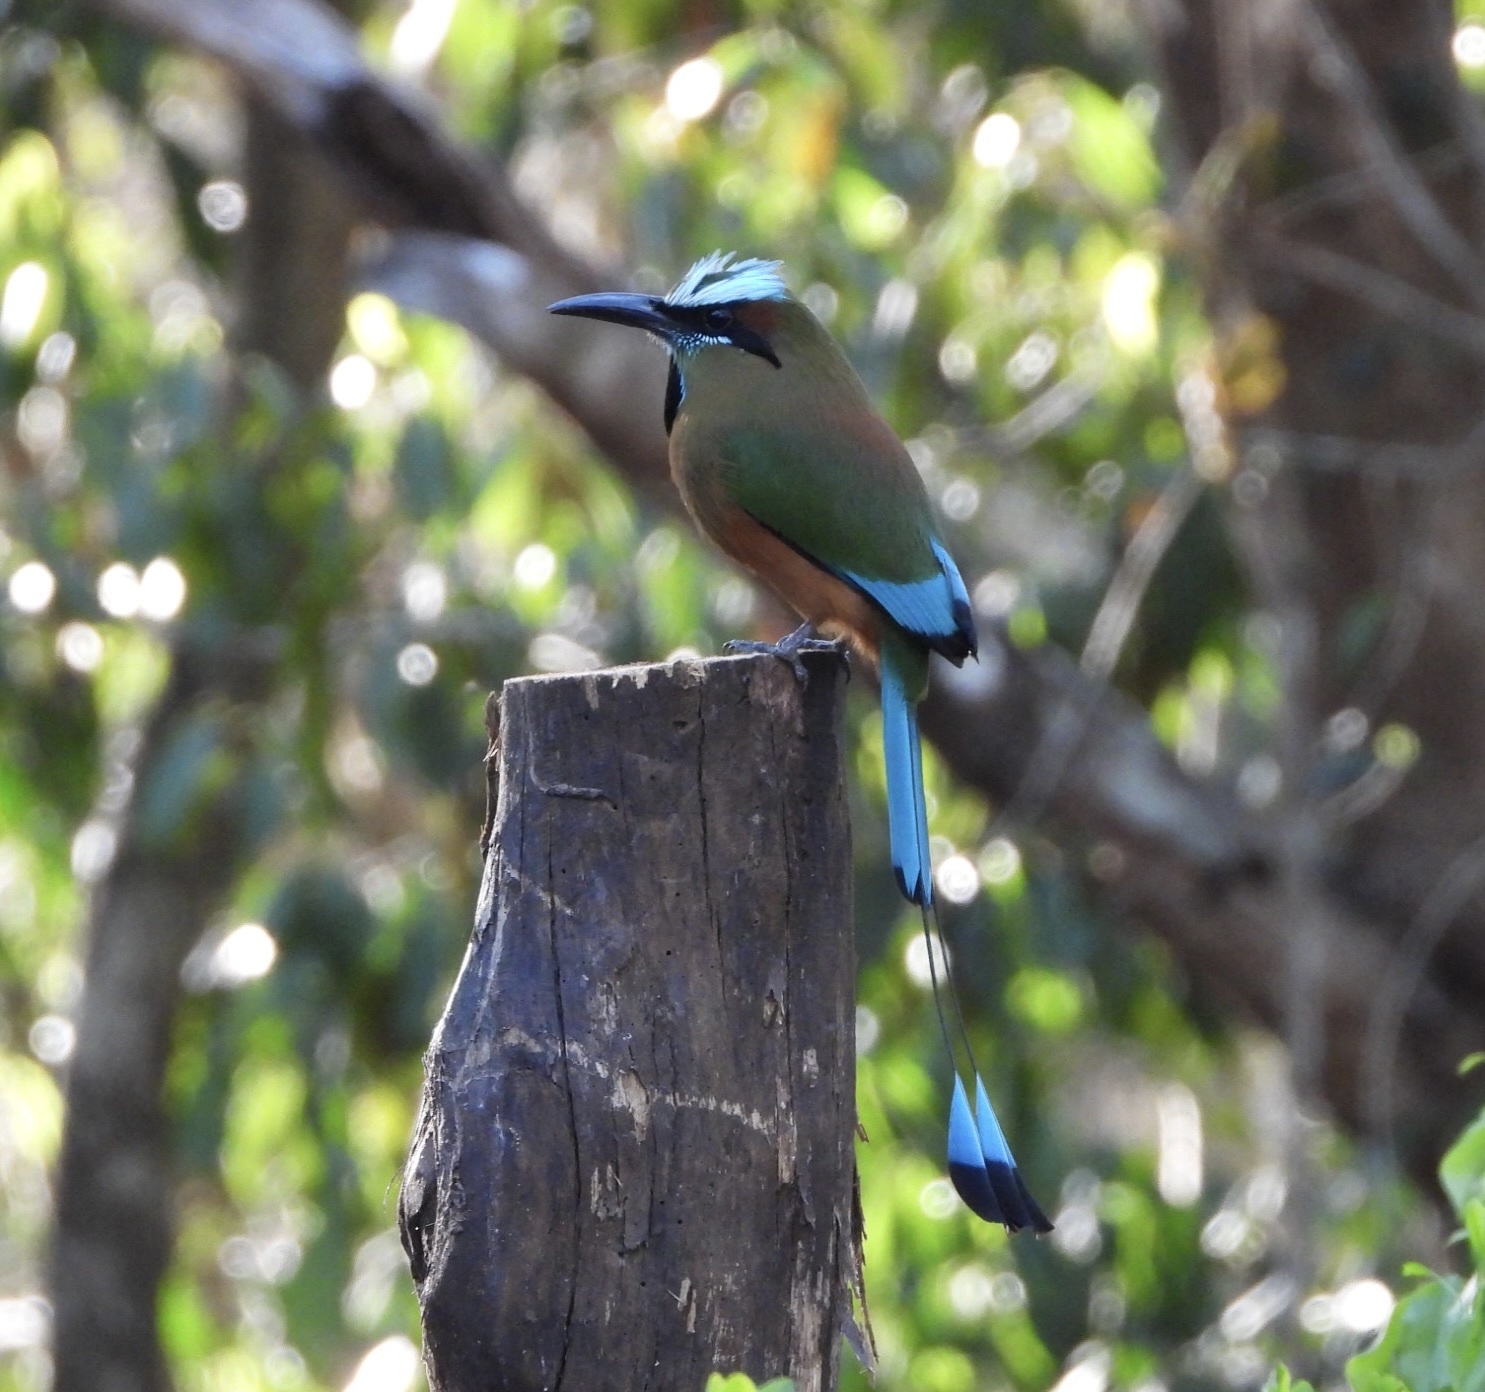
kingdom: Animalia
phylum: Chordata
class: Aves
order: Coraciiformes
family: Momotidae
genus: Eumomota
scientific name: Eumomota superciliosa
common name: Turquoise-browed motmot
